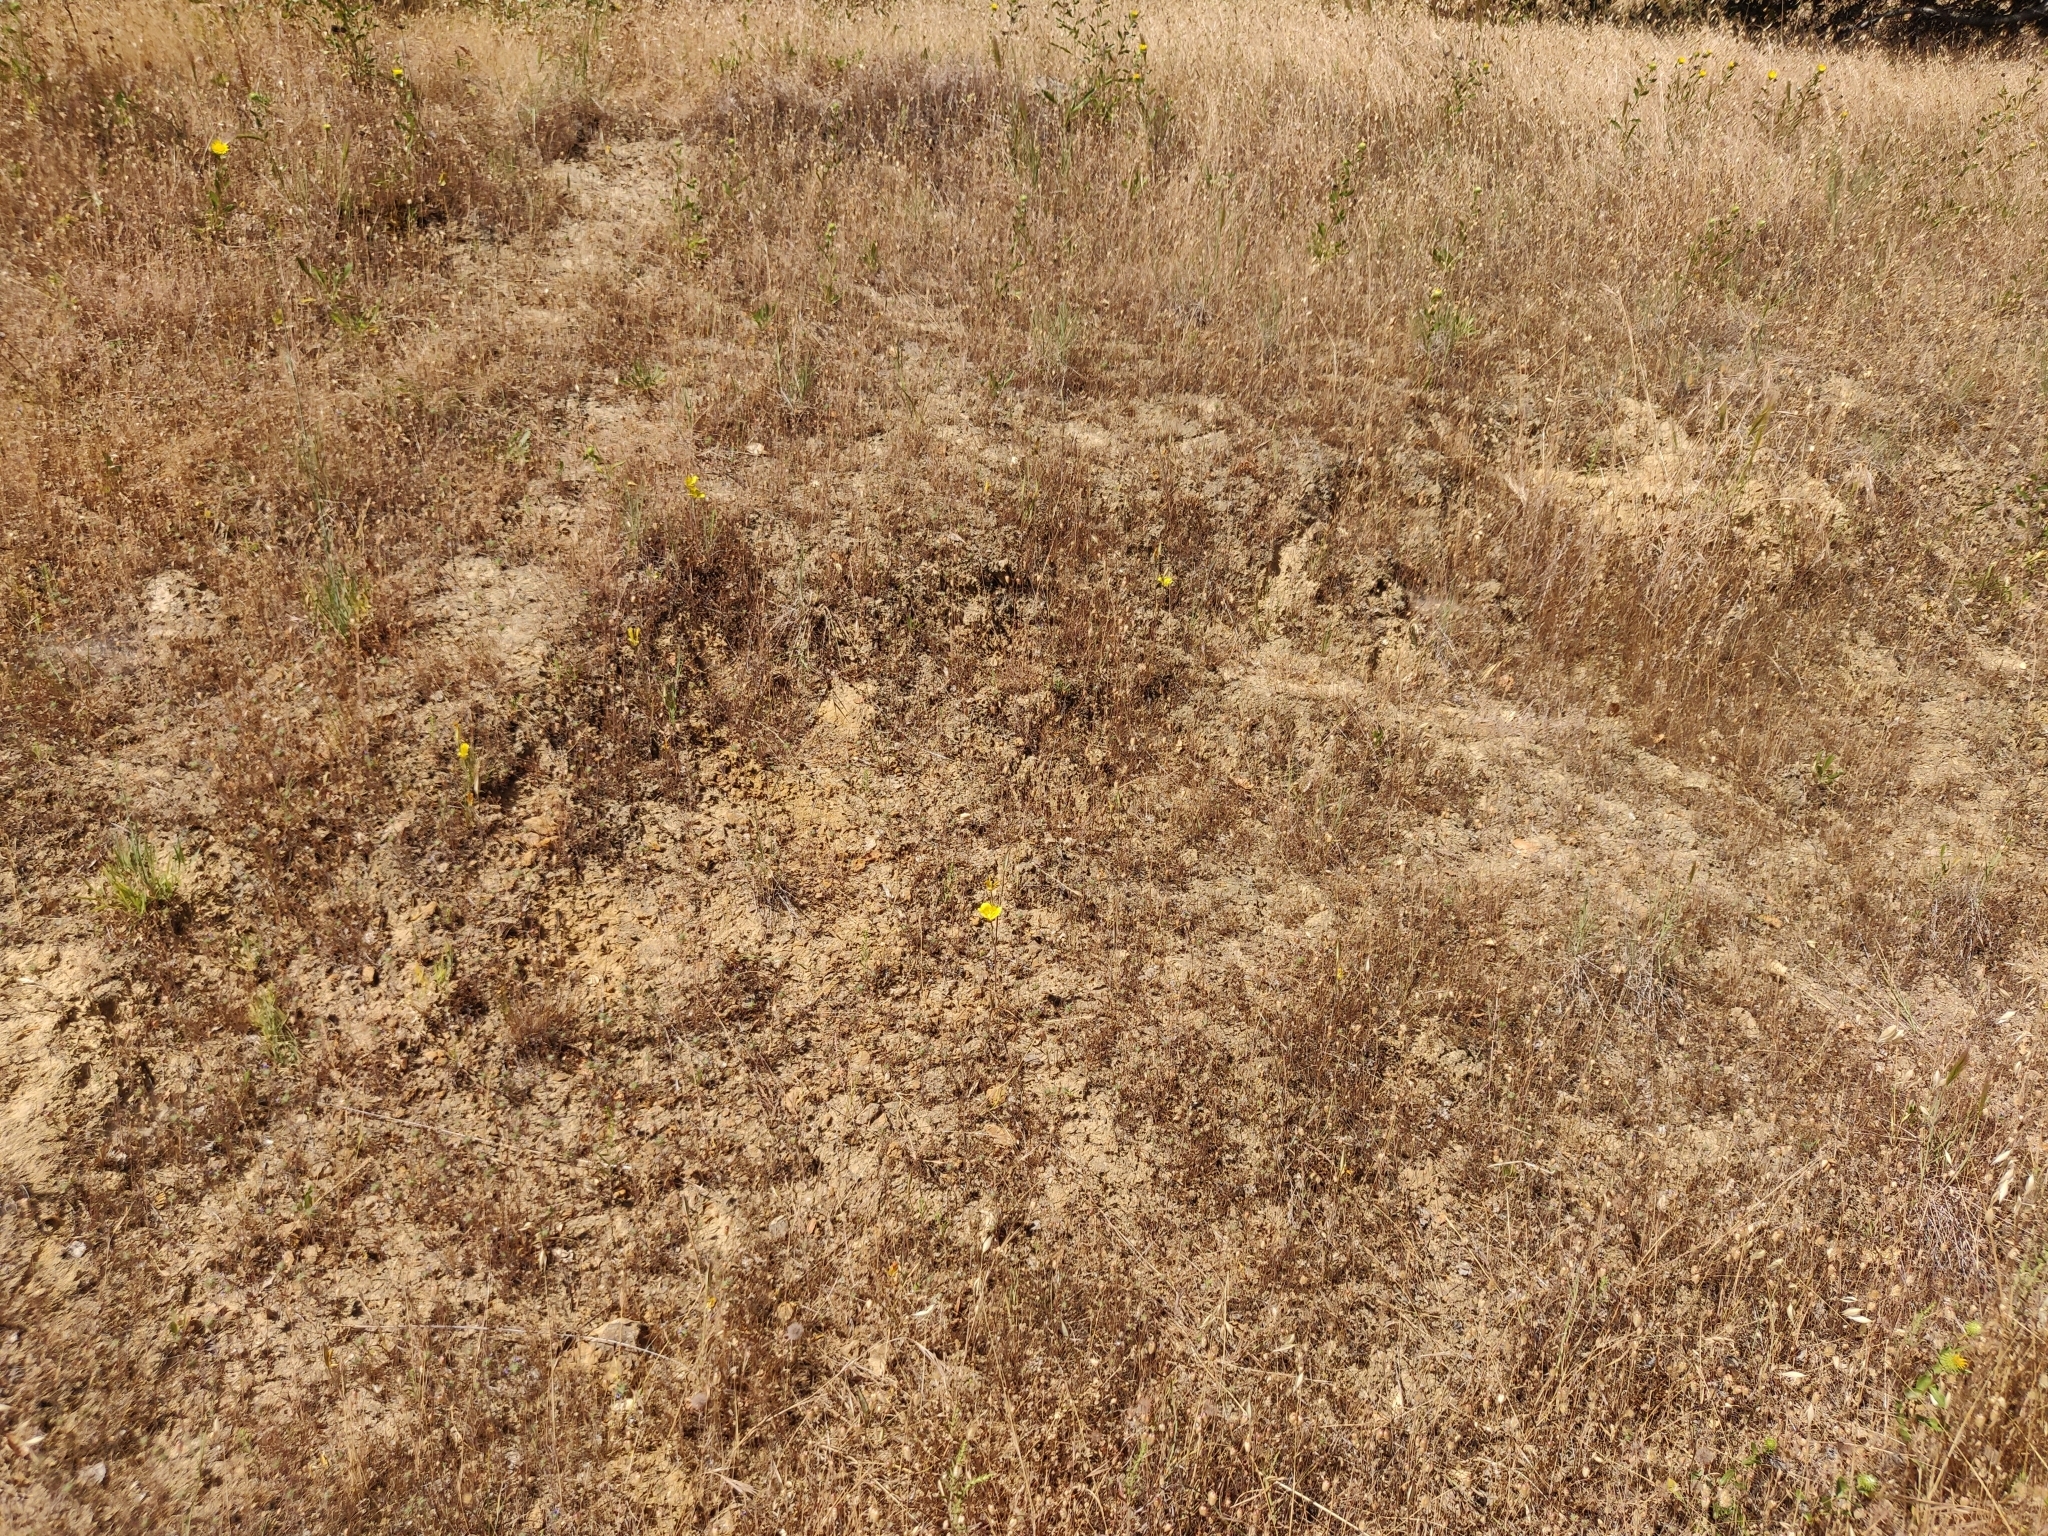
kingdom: Plantae
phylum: Tracheophyta
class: Liliopsida
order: Liliales
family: Liliaceae
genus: Calochortus
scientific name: Calochortus luteus
